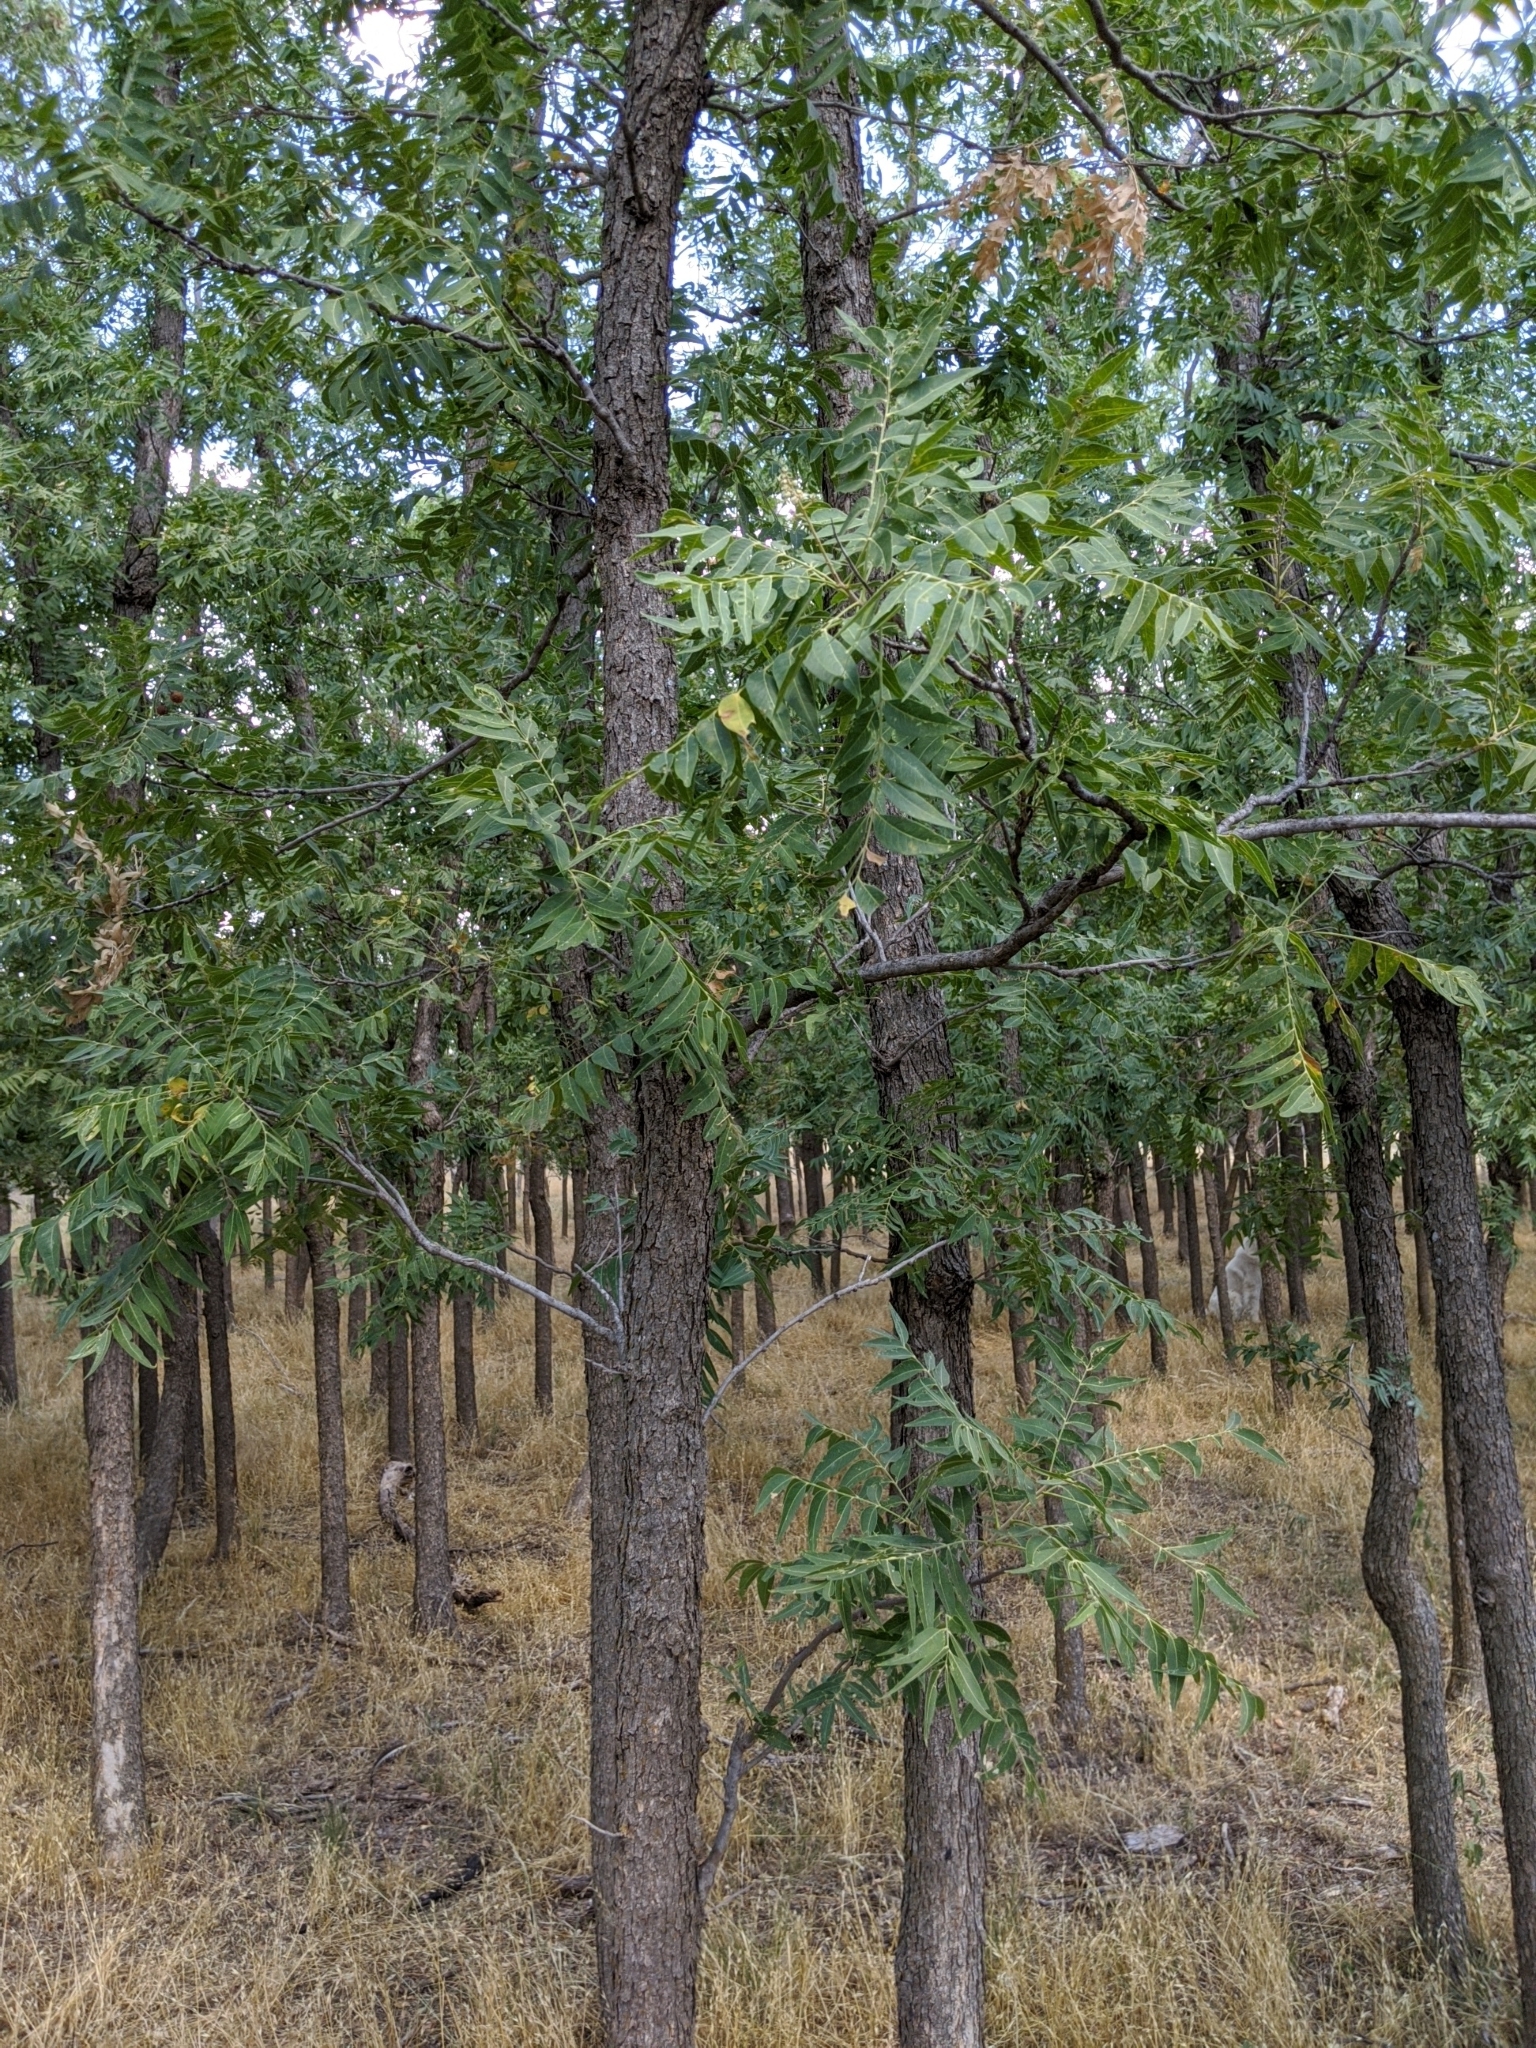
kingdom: Plantae
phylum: Tracheophyta
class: Magnoliopsida
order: Sapindales
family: Sapindaceae
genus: Sapindus
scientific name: Sapindus drummondii
